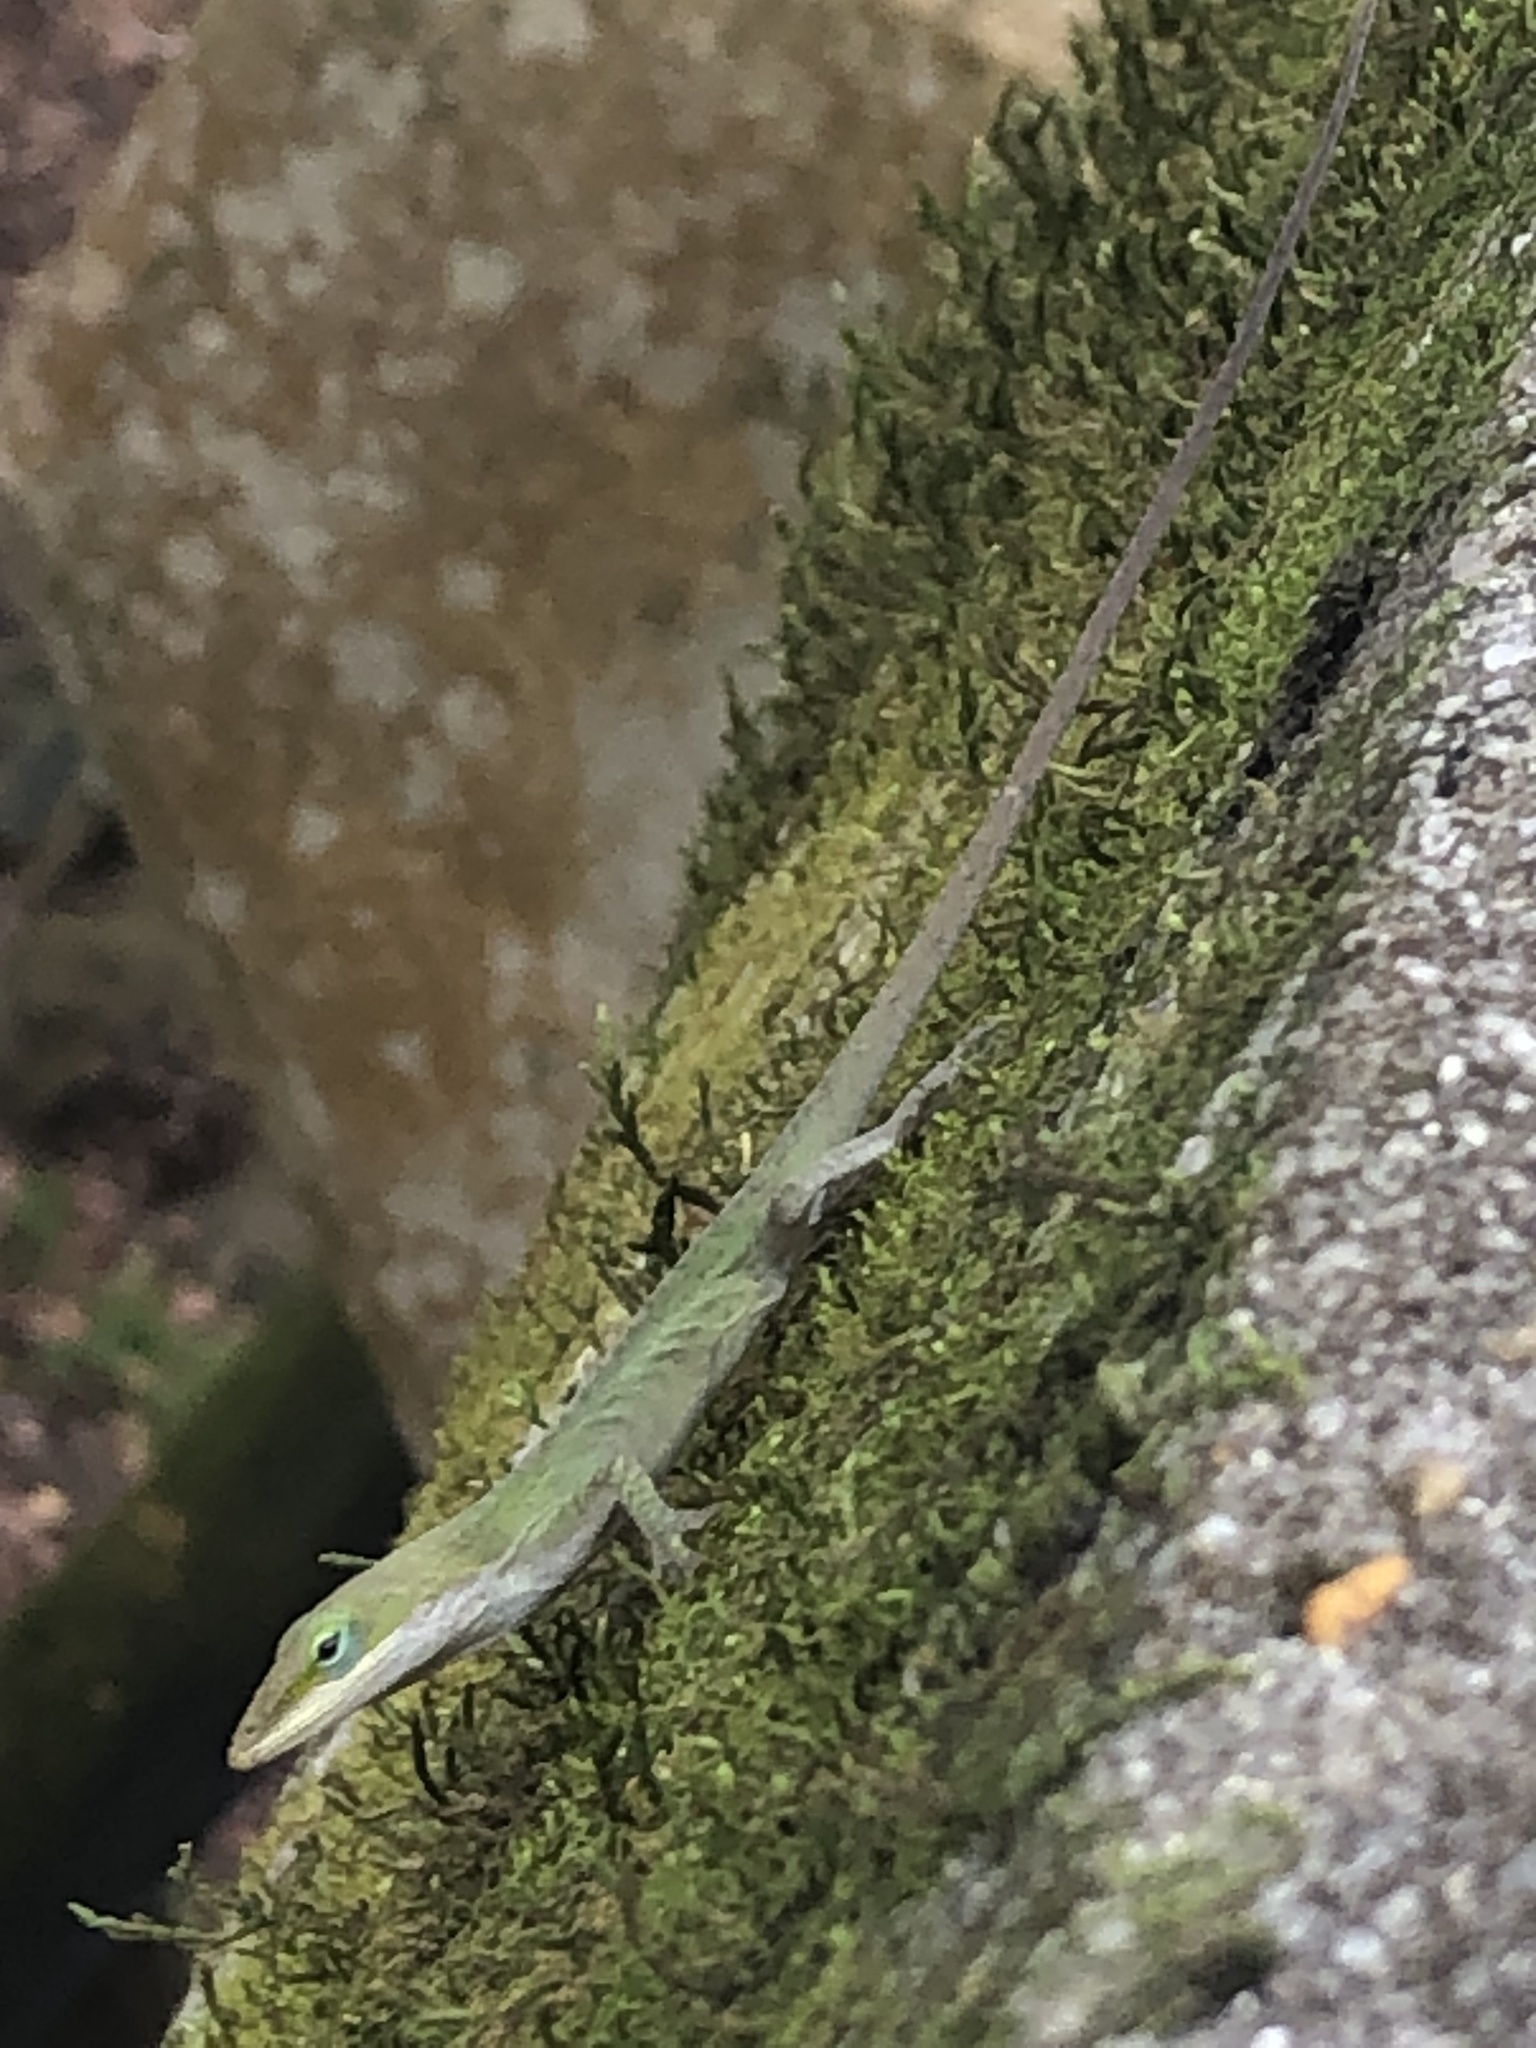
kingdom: Animalia
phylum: Chordata
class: Squamata
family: Dactyloidae
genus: Anolis
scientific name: Anolis carolinensis
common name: Green anole
